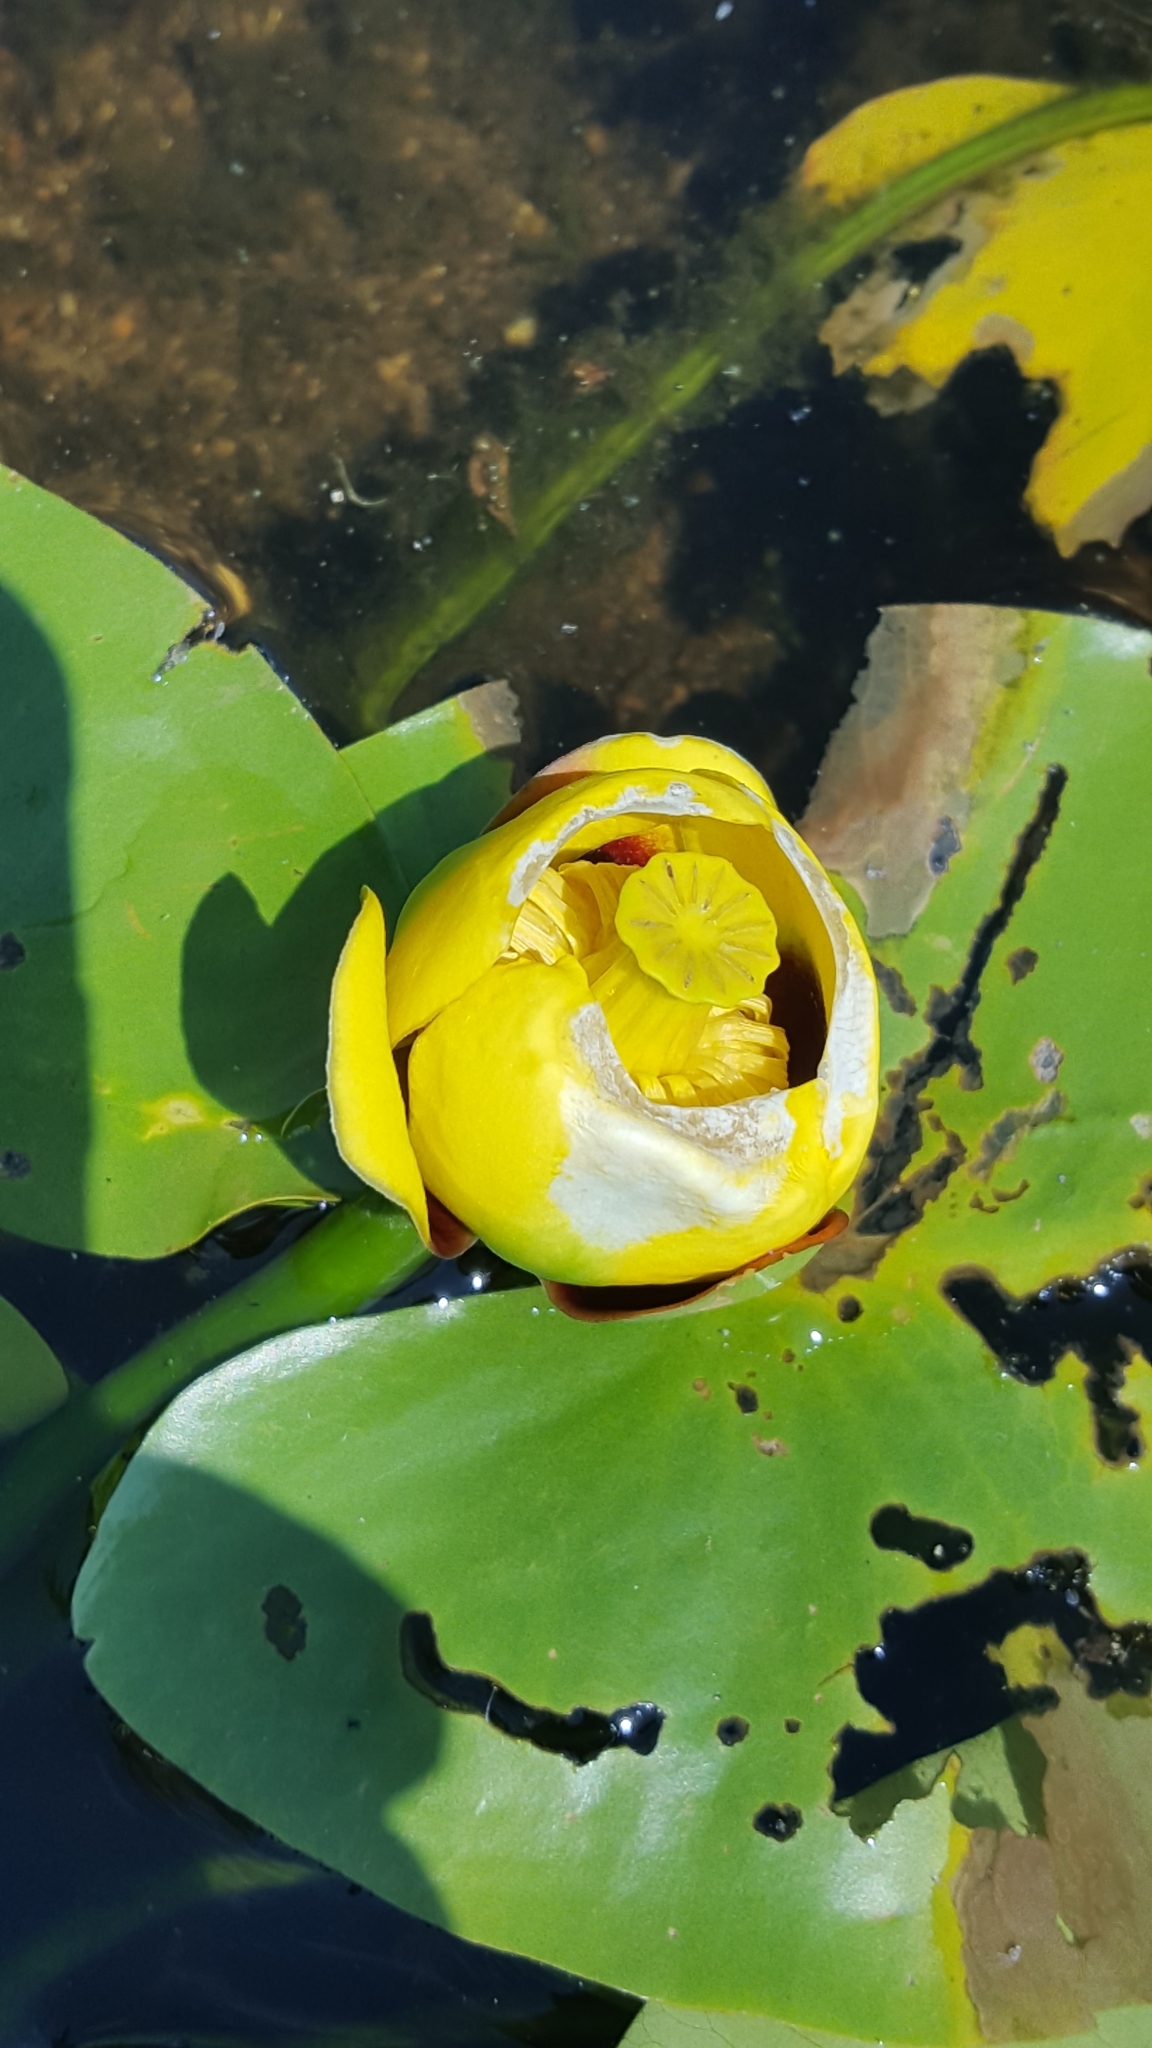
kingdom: Plantae
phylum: Tracheophyta
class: Magnoliopsida
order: Nymphaeales
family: Nymphaeaceae
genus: Nuphar
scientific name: Nuphar variegata
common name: Beaver-root
